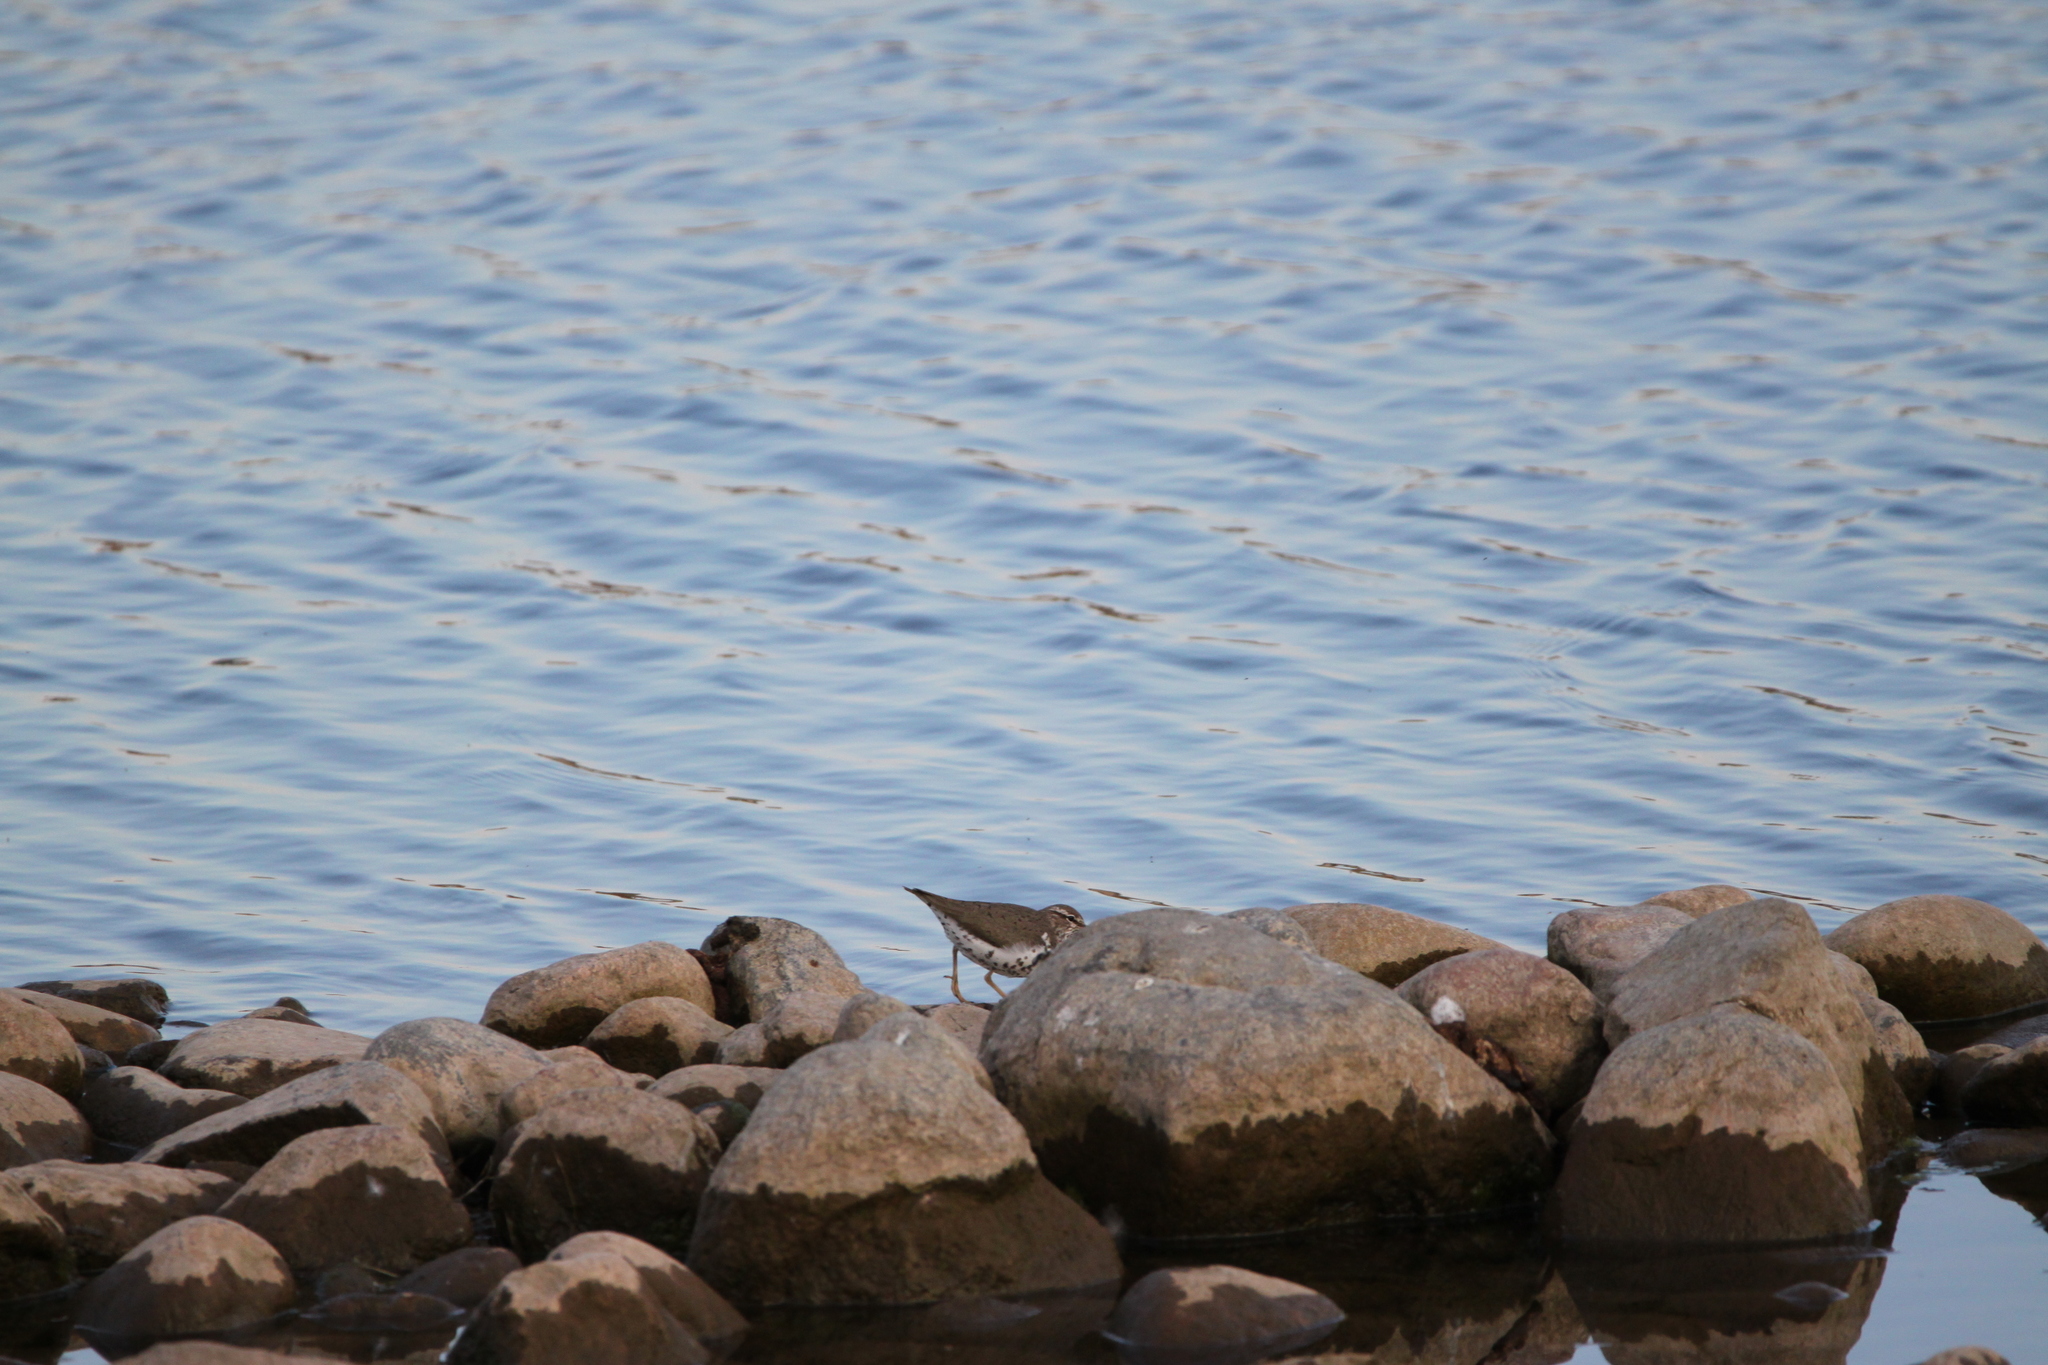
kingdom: Animalia
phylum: Chordata
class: Aves
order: Charadriiformes
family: Scolopacidae
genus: Actitis
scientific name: Actitis macularius
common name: Spotted sandpiper
